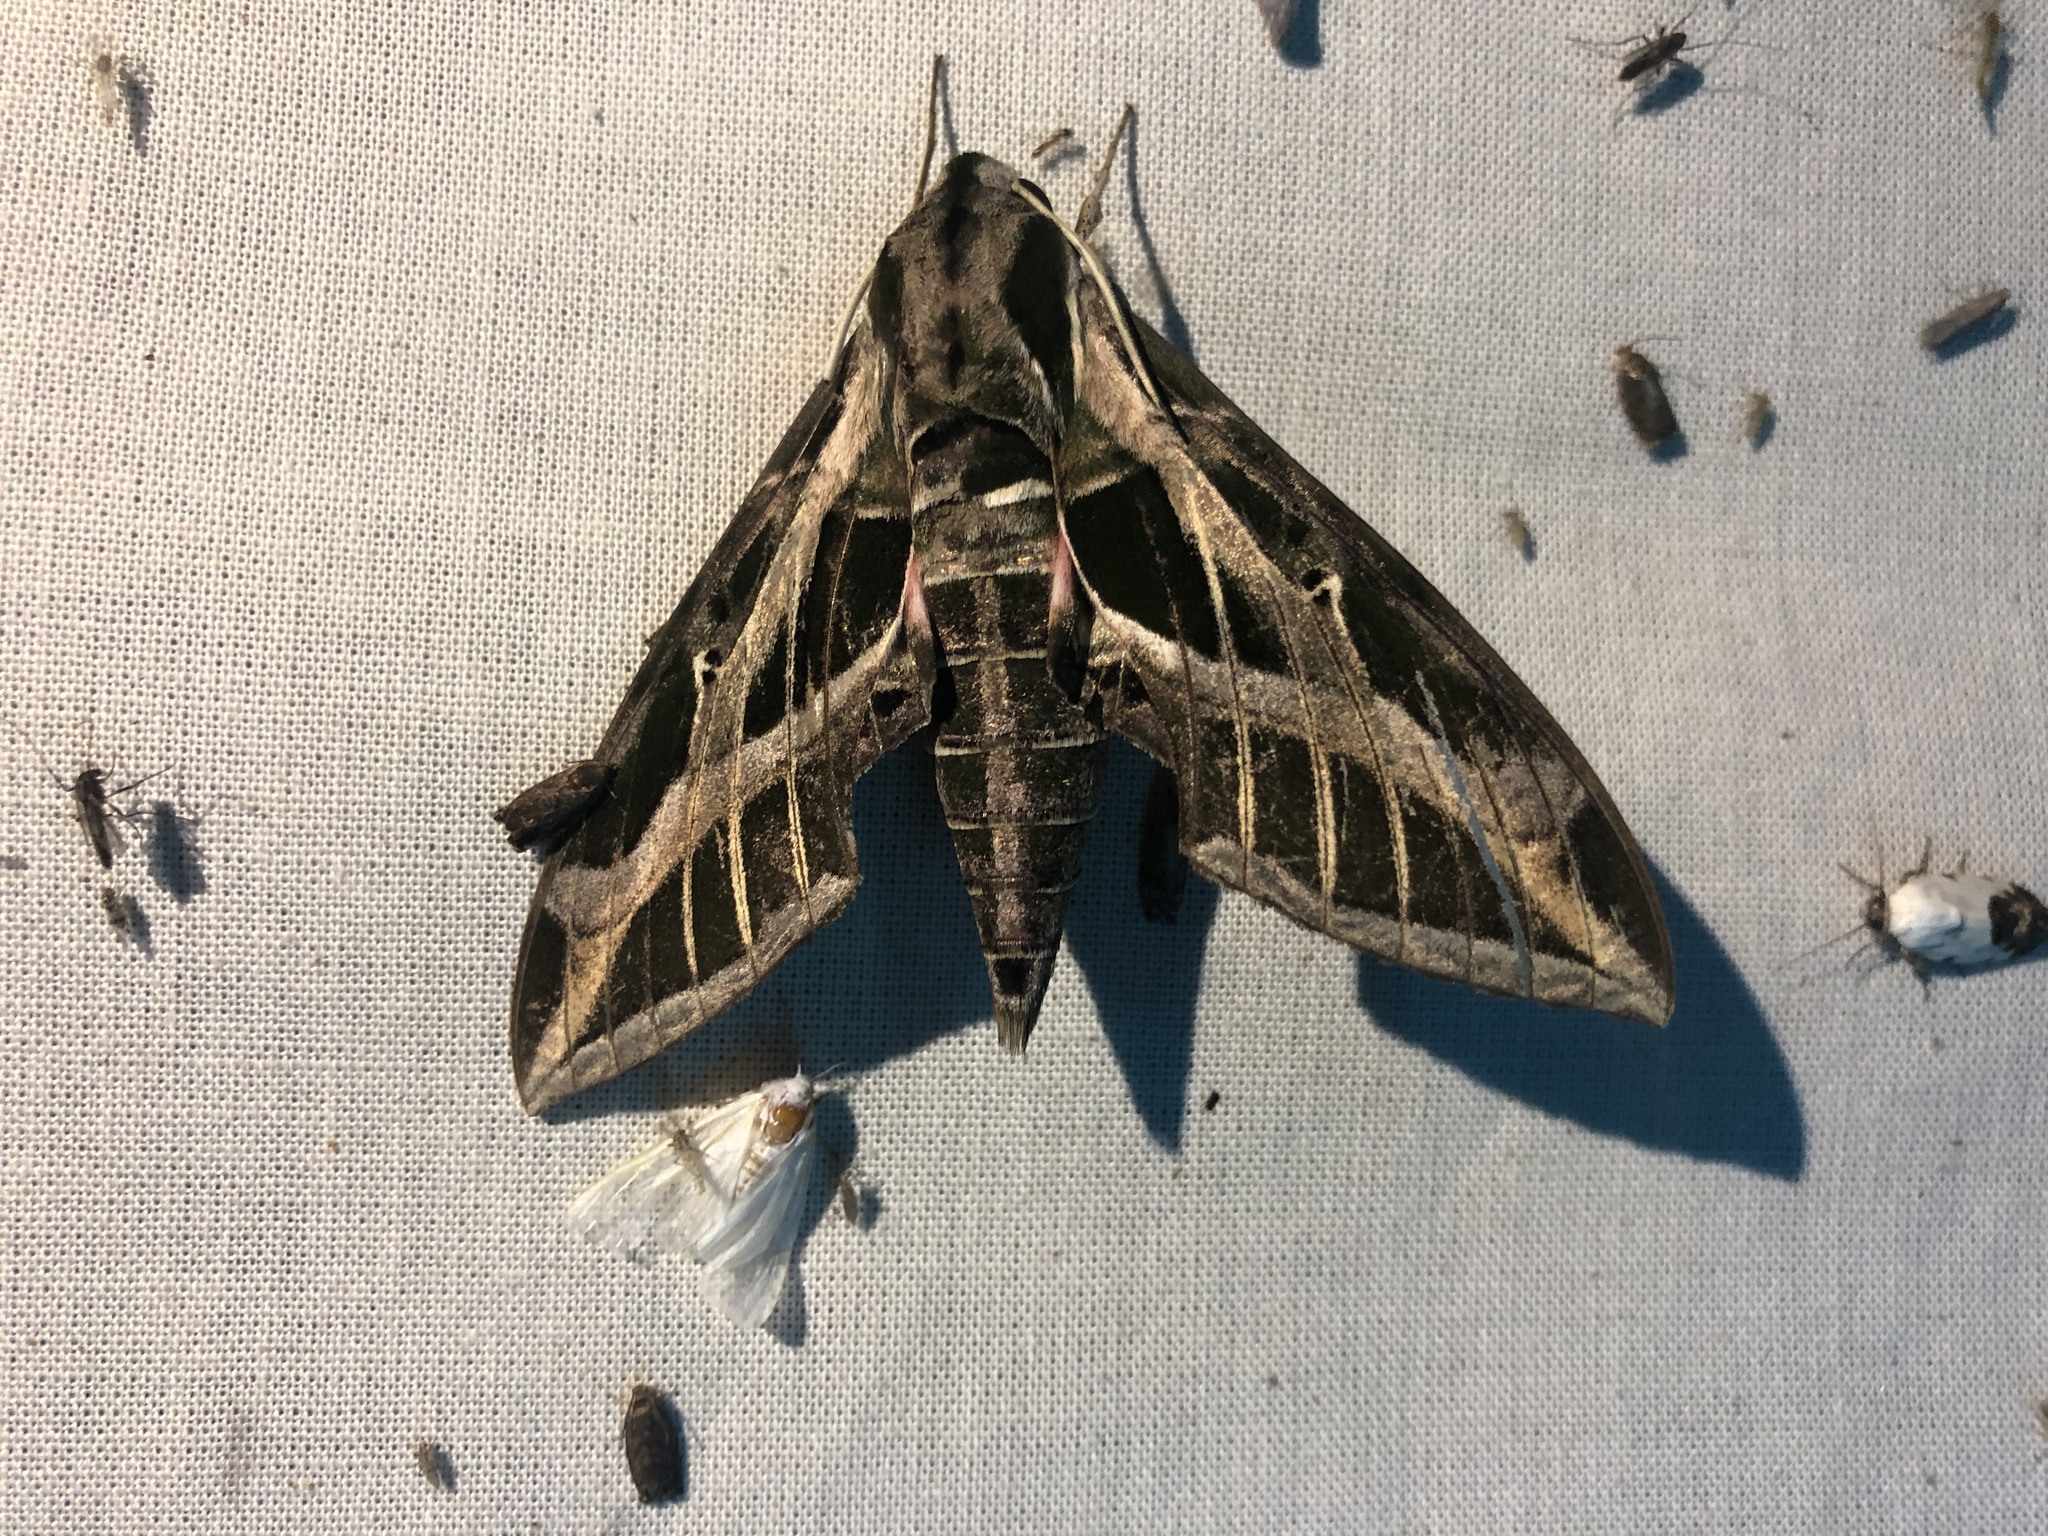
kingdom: Animalia
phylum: Arthropoda
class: Insecta
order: Lepidoptera
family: Sphingidae
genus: Eumorpha
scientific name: Eumorpha vitis
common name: Vine sphinx
